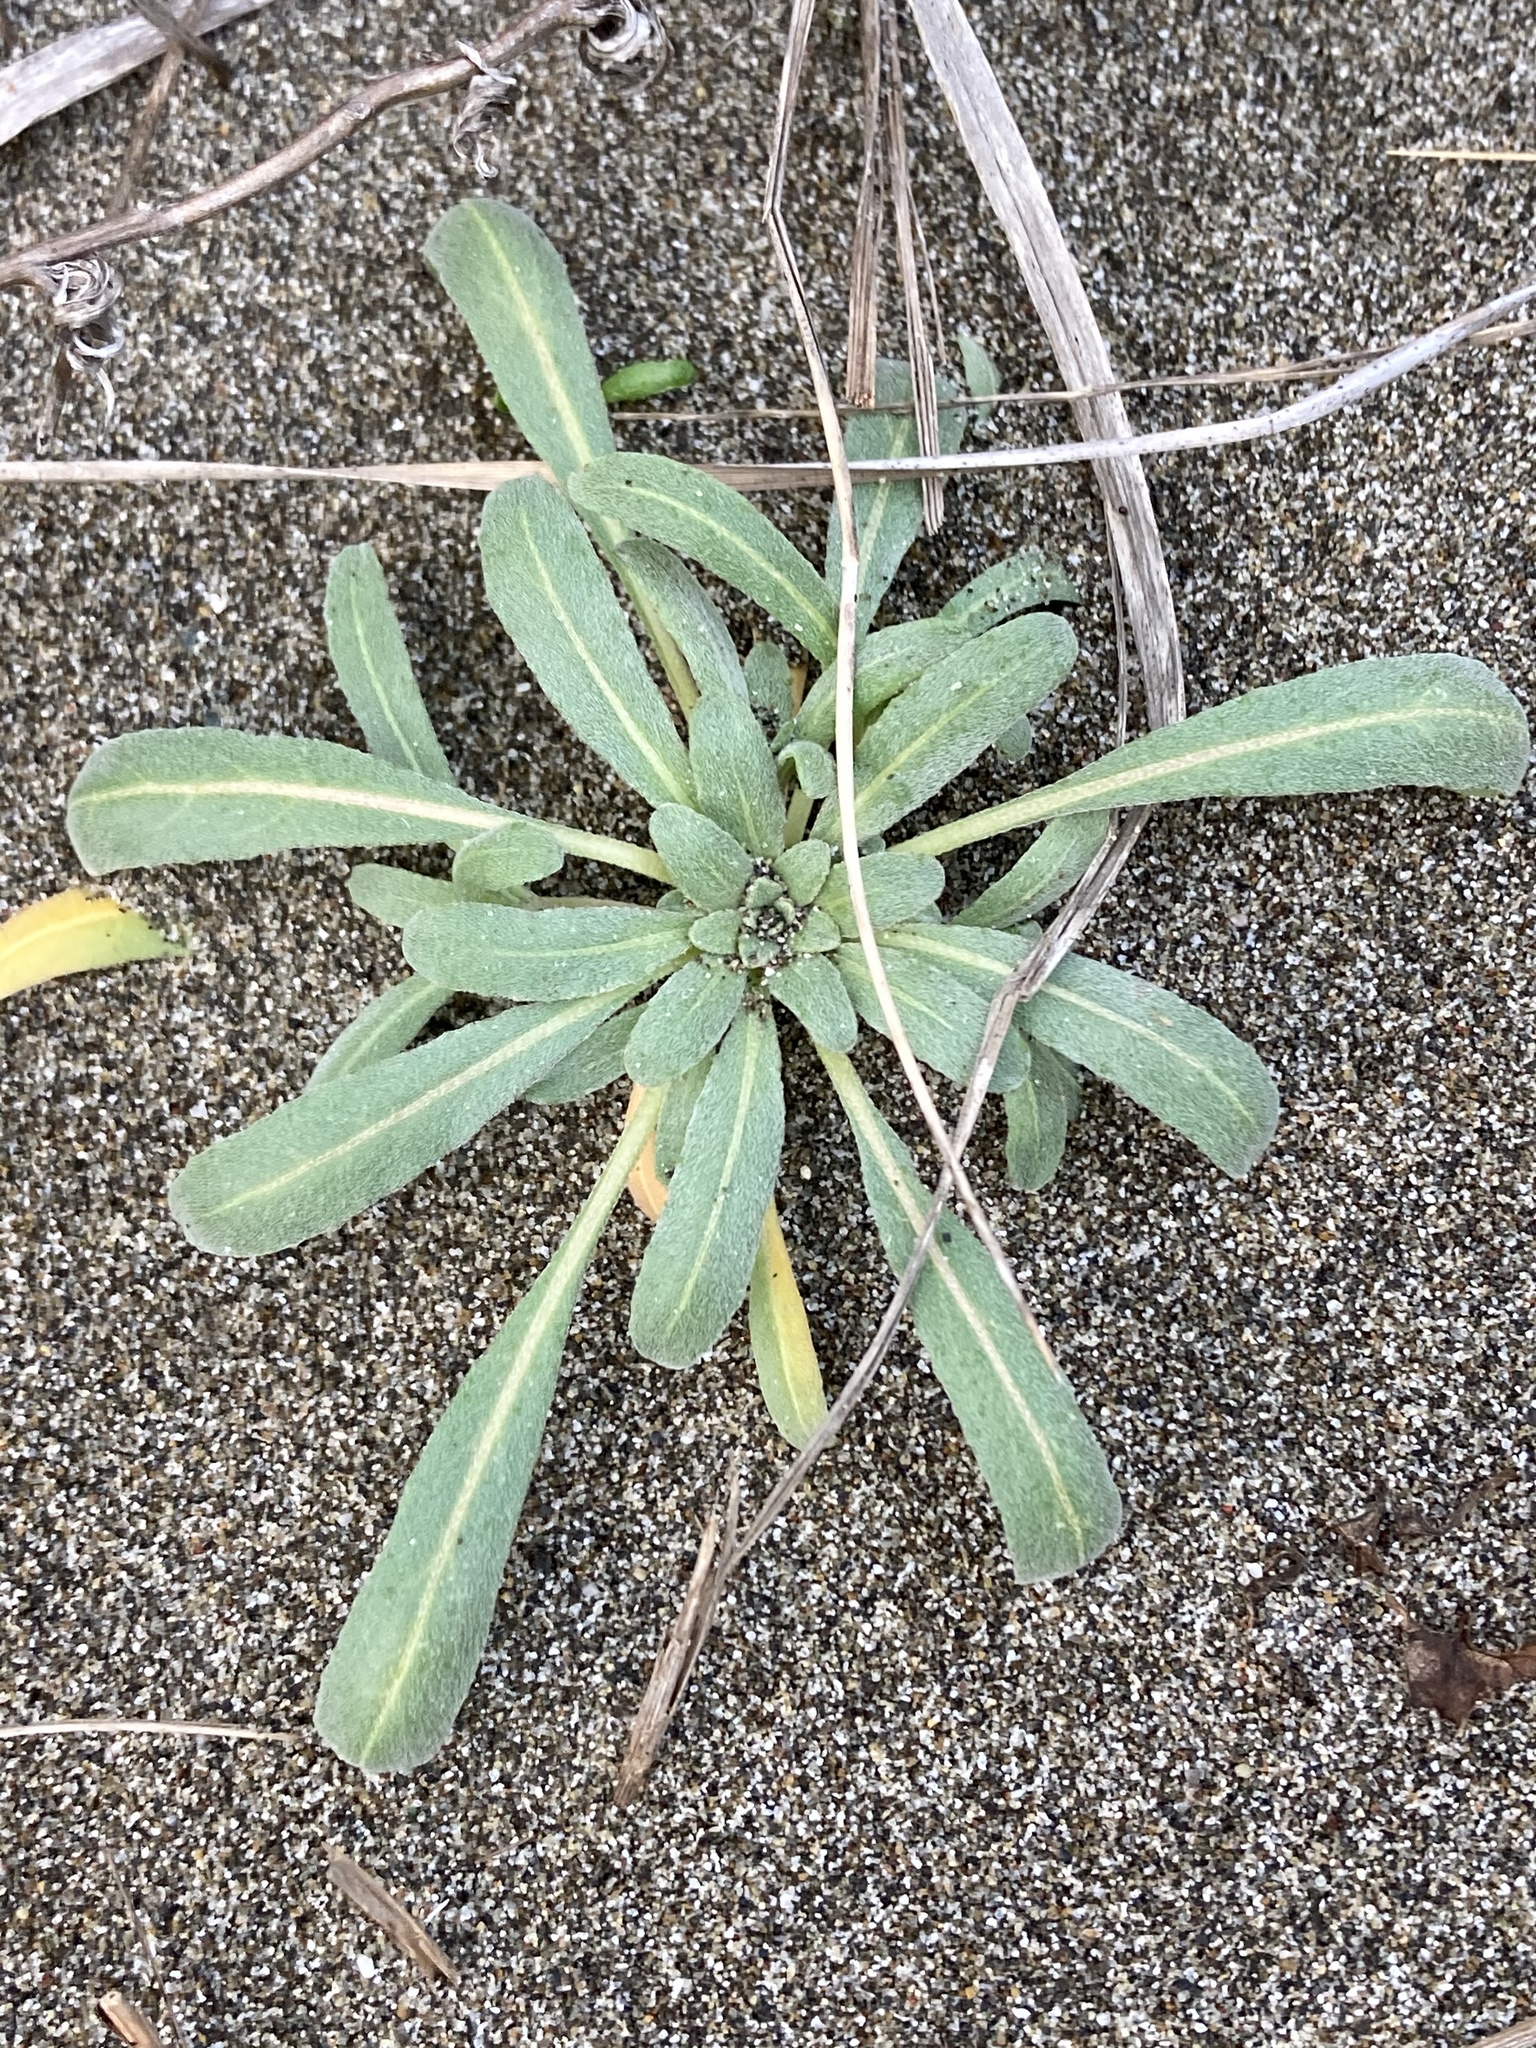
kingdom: Plantae
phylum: Tracheophyta
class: Magnoliopsida
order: Myrtales
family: Onagraceae
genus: Camissoniopsis
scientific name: Camissoniopsis cheiranthifolia
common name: Beach suncup
